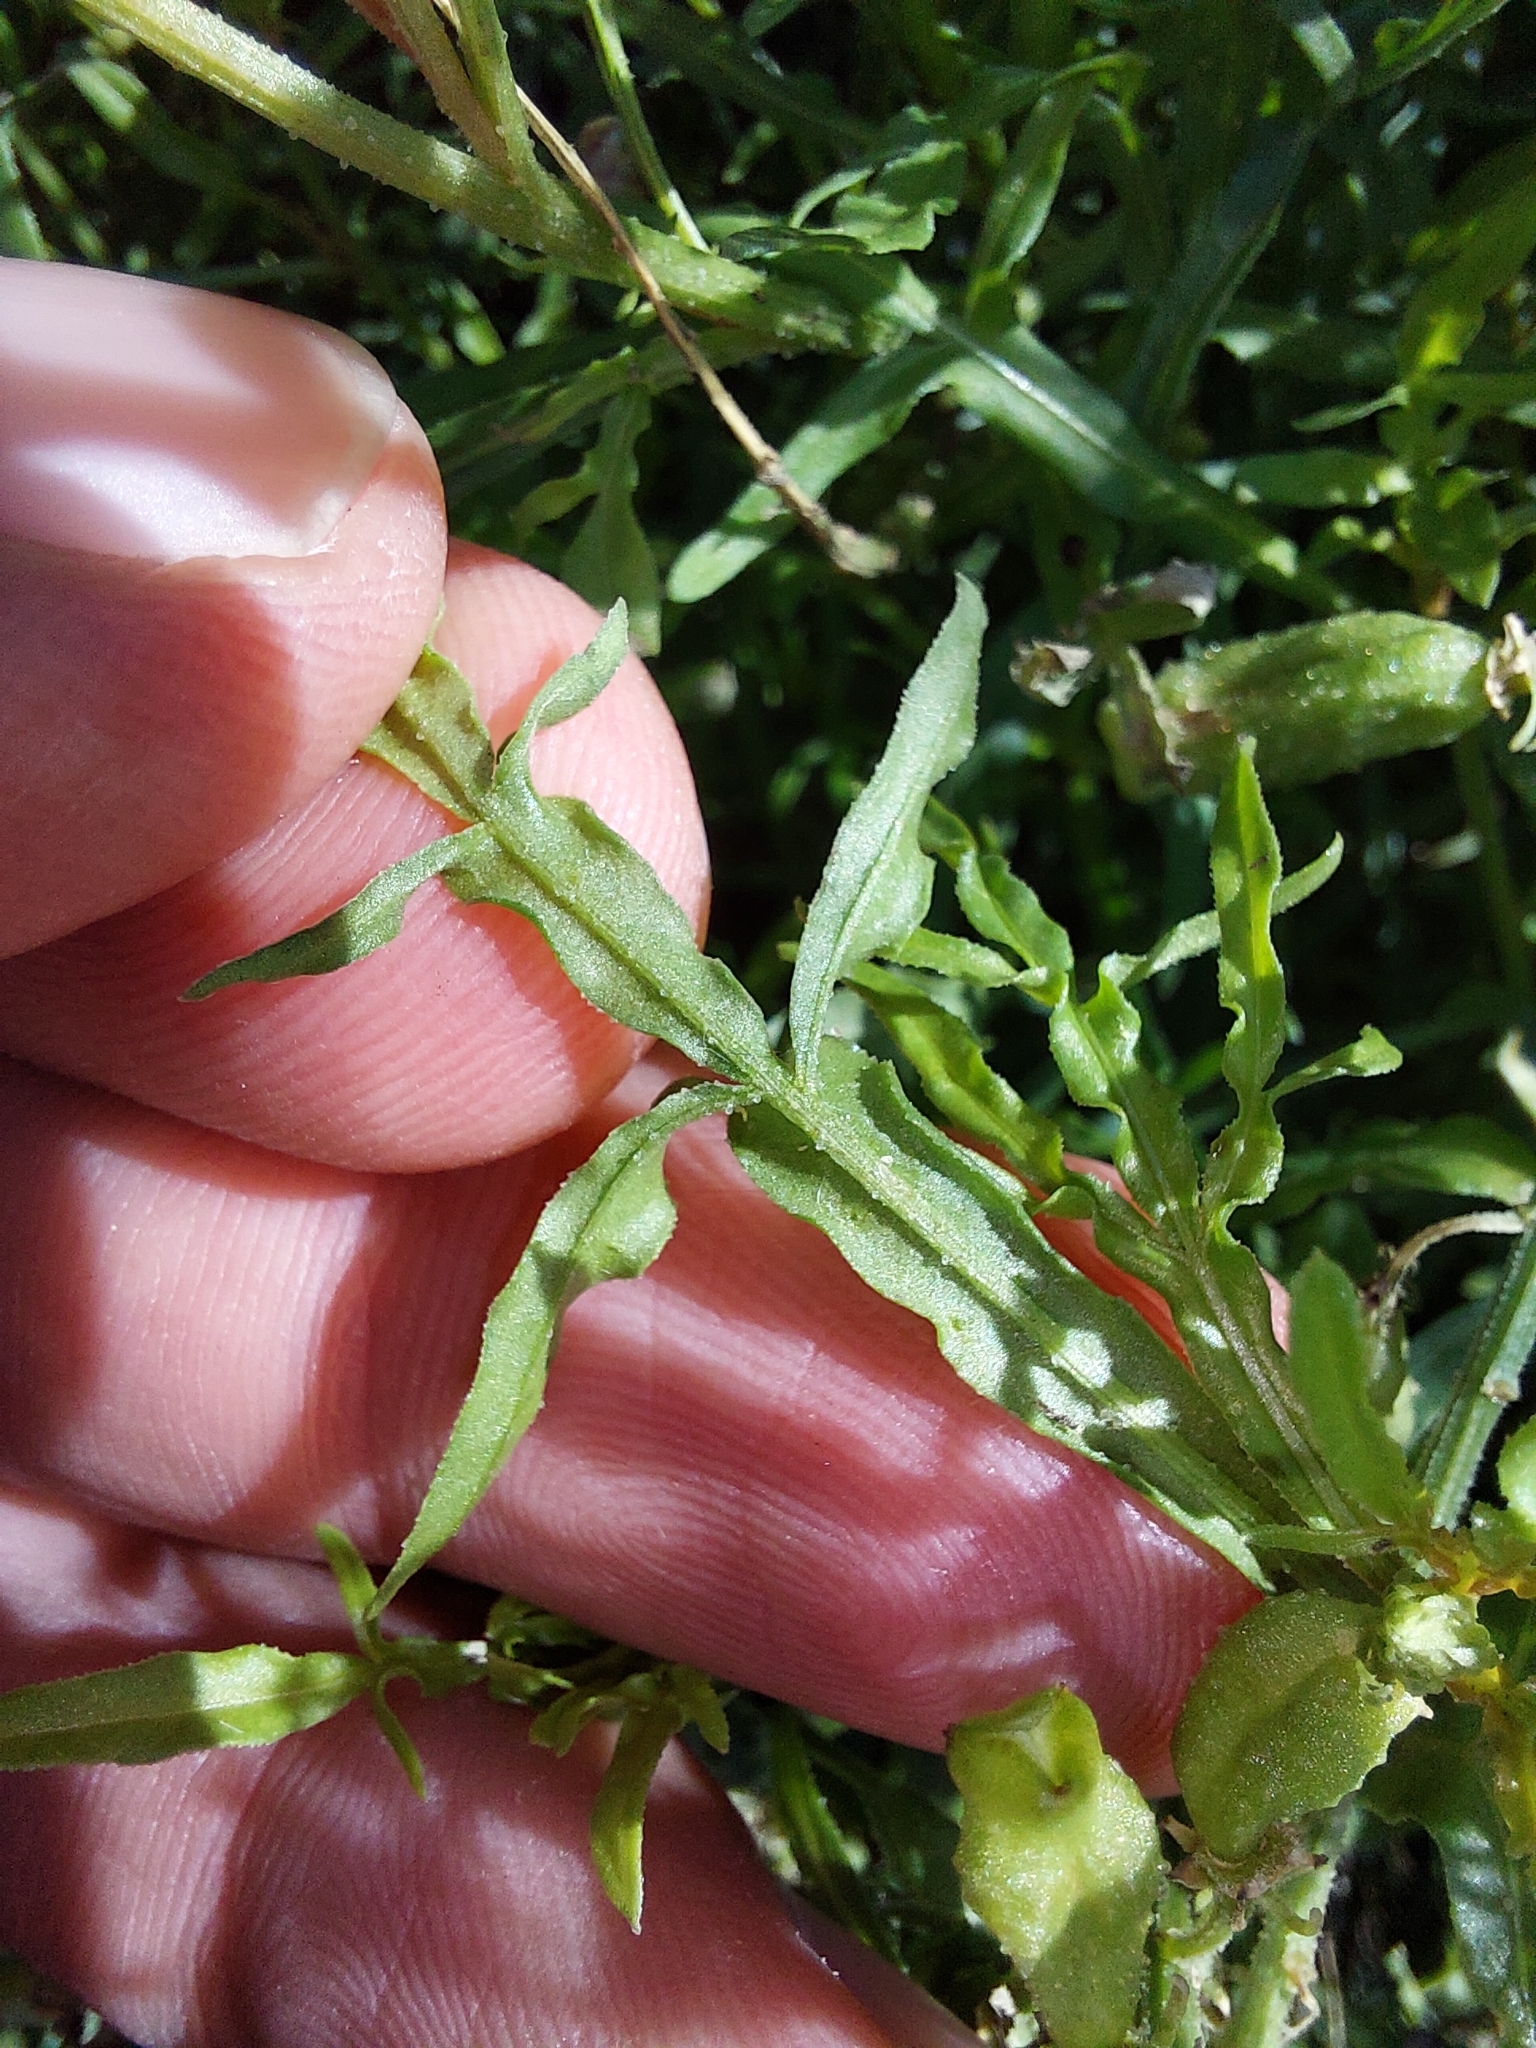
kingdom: Plantae
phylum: Tracheophyta
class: Magnoliopsida
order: Brassicales
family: Resedaceae
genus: Reseda
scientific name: Reseda lutea
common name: Wild mignonette
